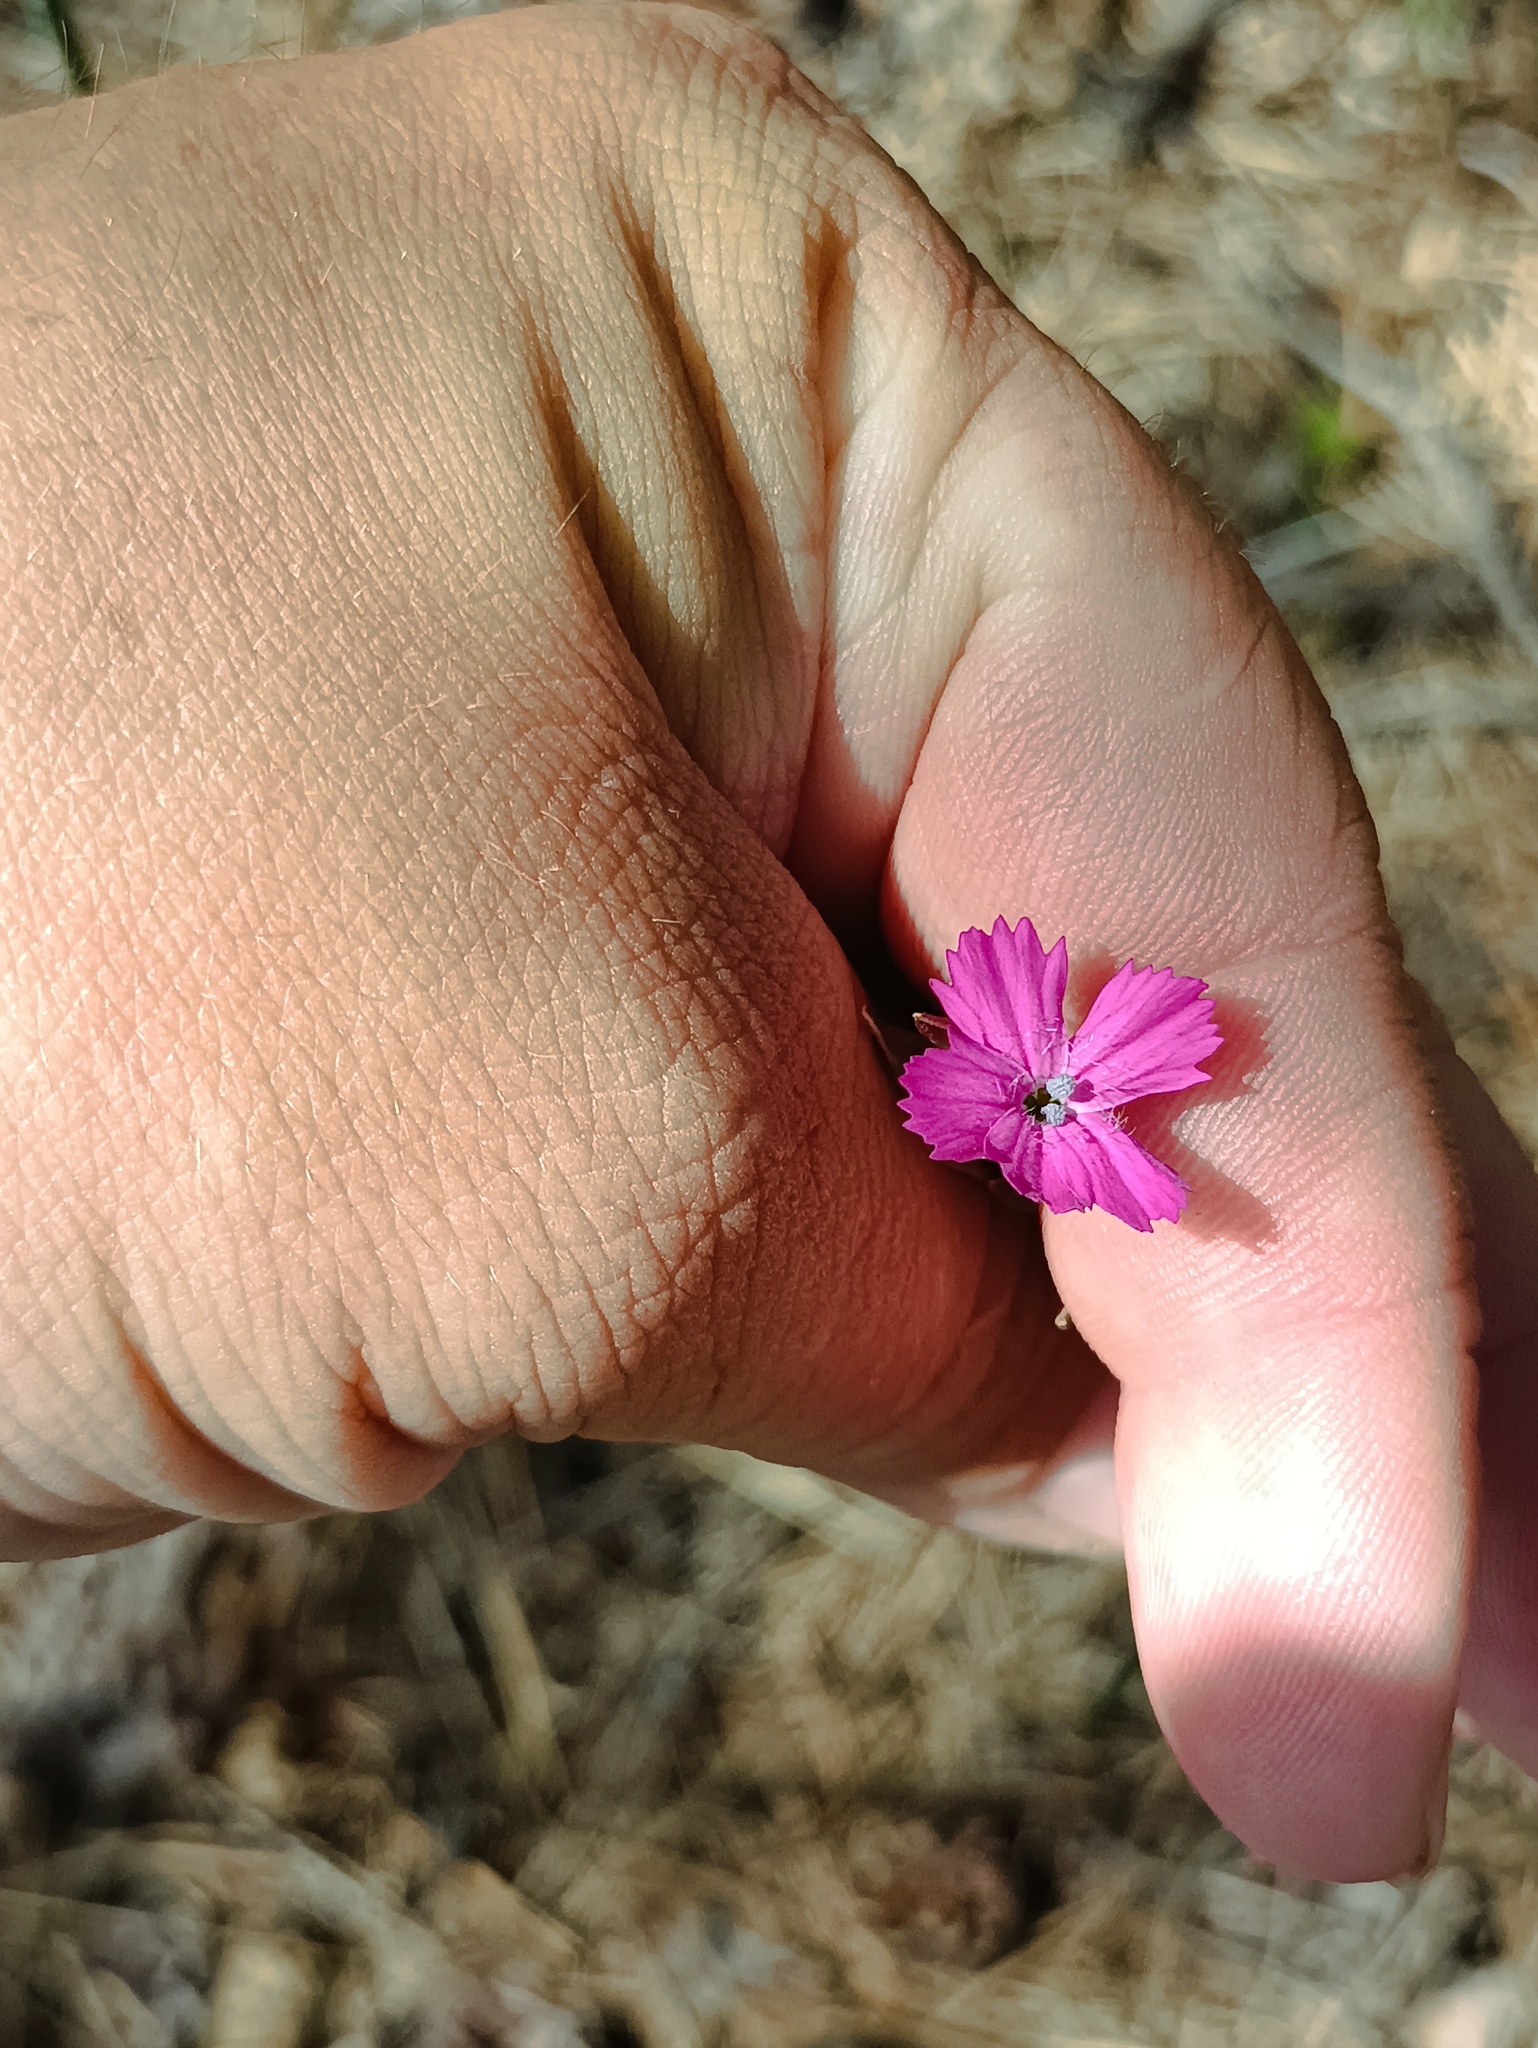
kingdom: Plantae
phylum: Tracheophyta
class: Magnoliopsida
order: Caryophyllales
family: Caryophyllaceae
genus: Dianthus
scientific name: Dianthus borbasii
